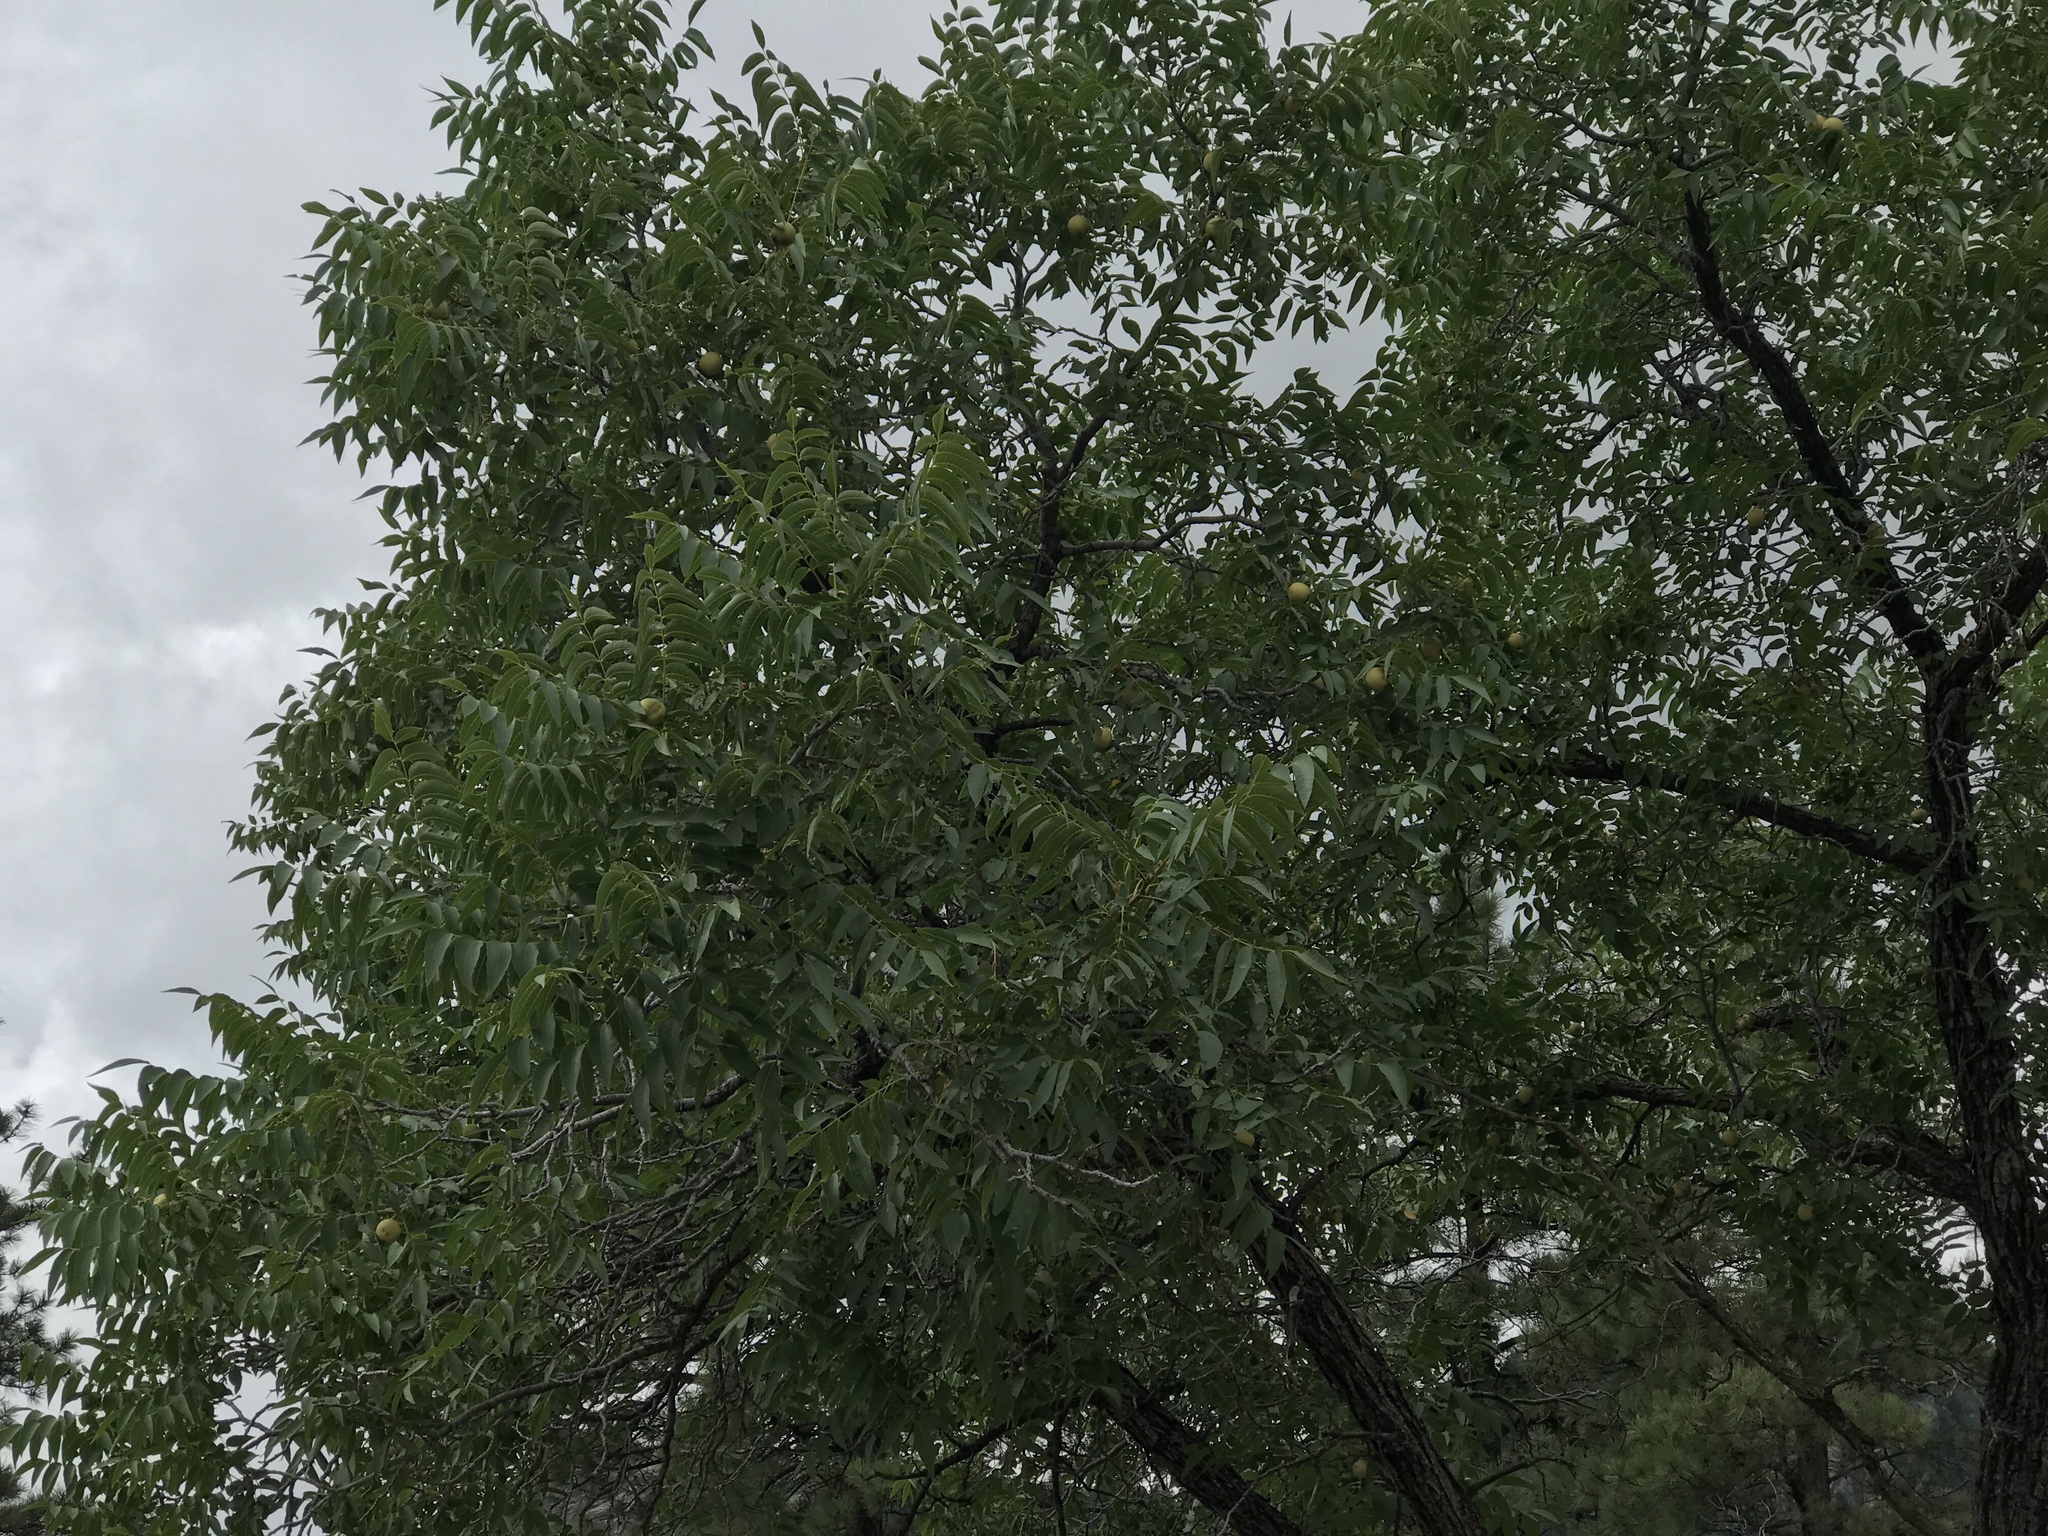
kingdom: Plantae
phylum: Tracheophyta
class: Magnoliopsida
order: Fagales
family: Juglandaceae
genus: Juglans
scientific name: Juglans major
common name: Arizona walnut
